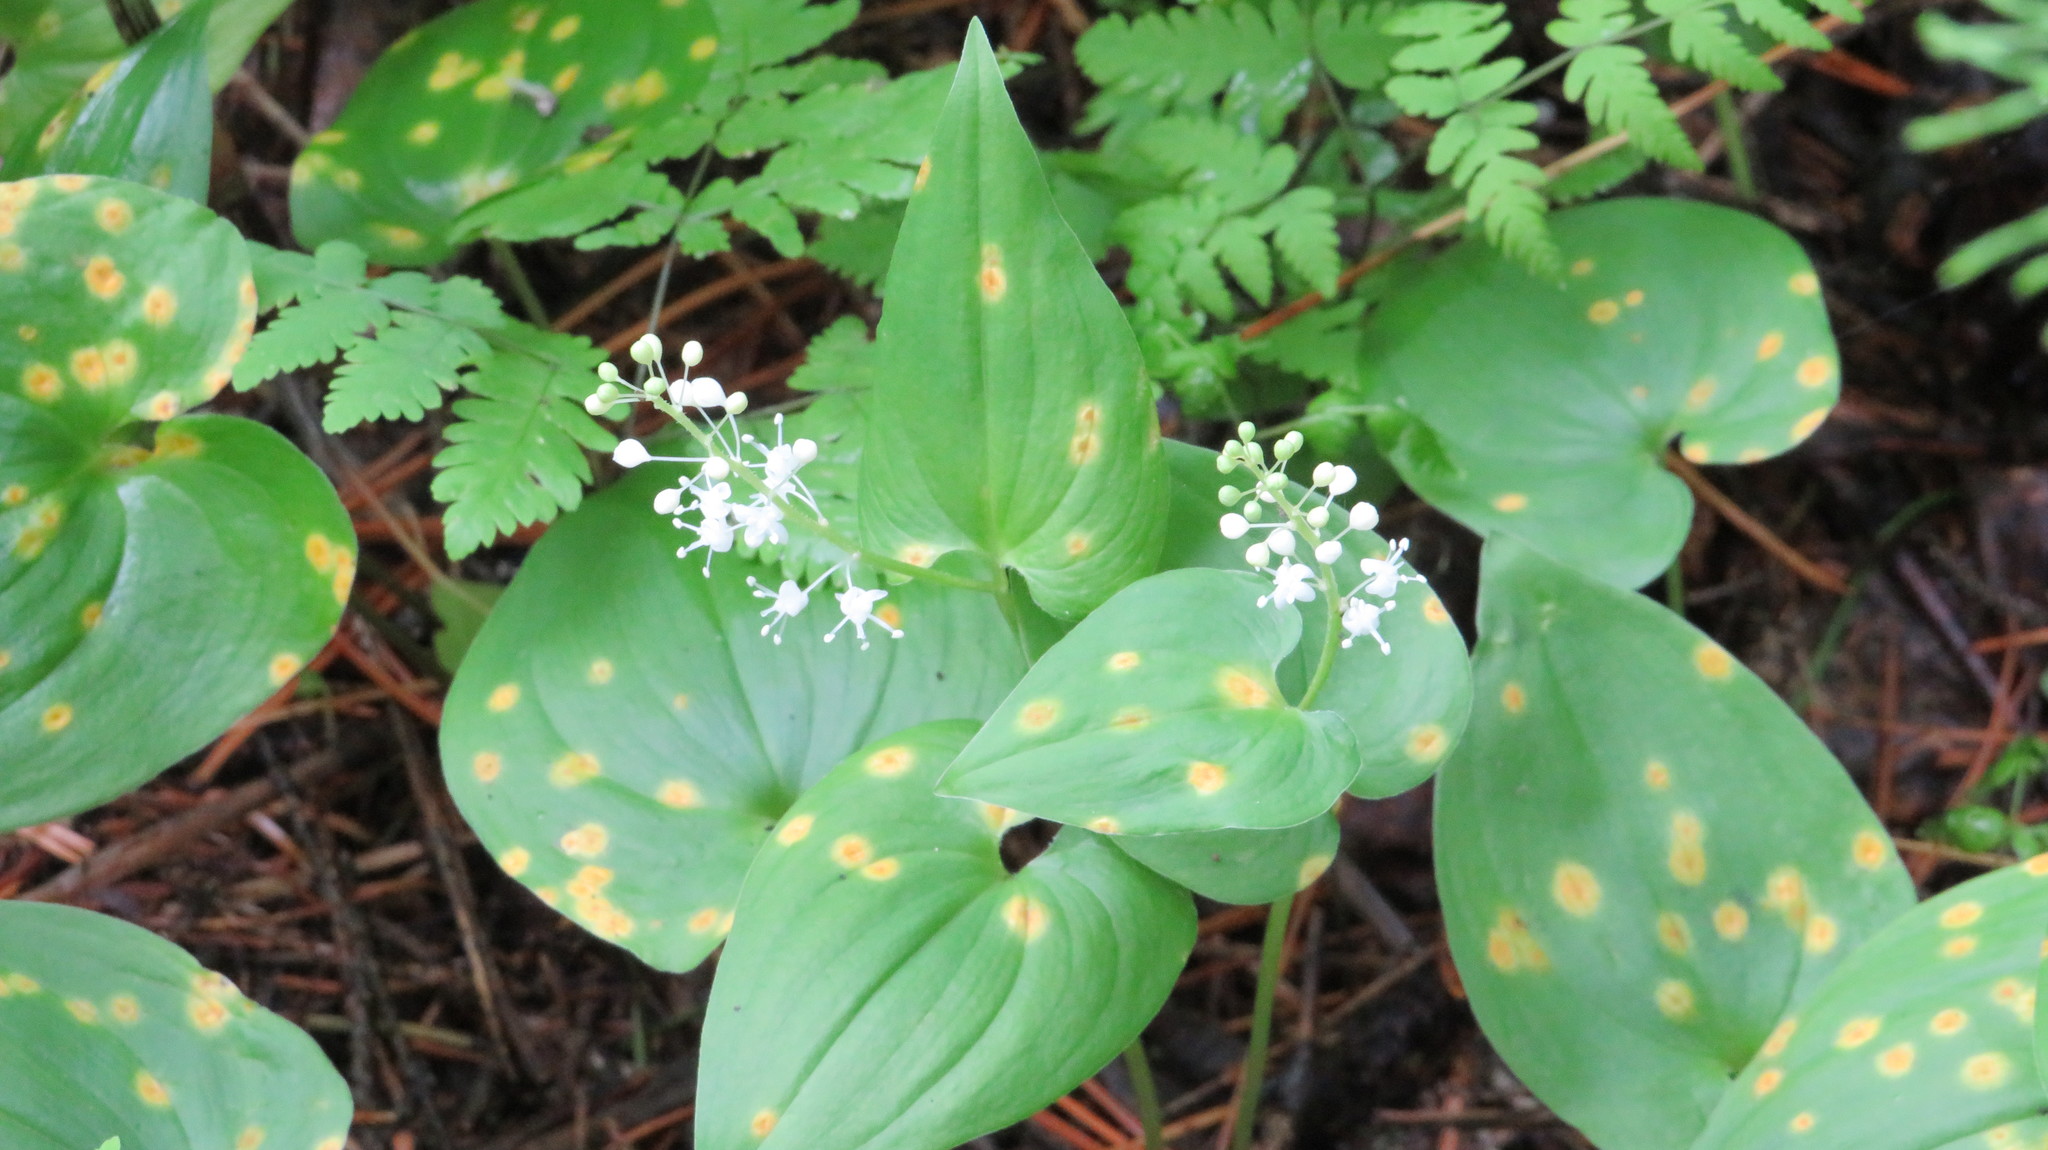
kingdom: Plantae
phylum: Tracheophyta
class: Liliopsida
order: Asparagales
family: Asparagaceae
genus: Maianthemum
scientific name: Maianthemum bifolium
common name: May lily
